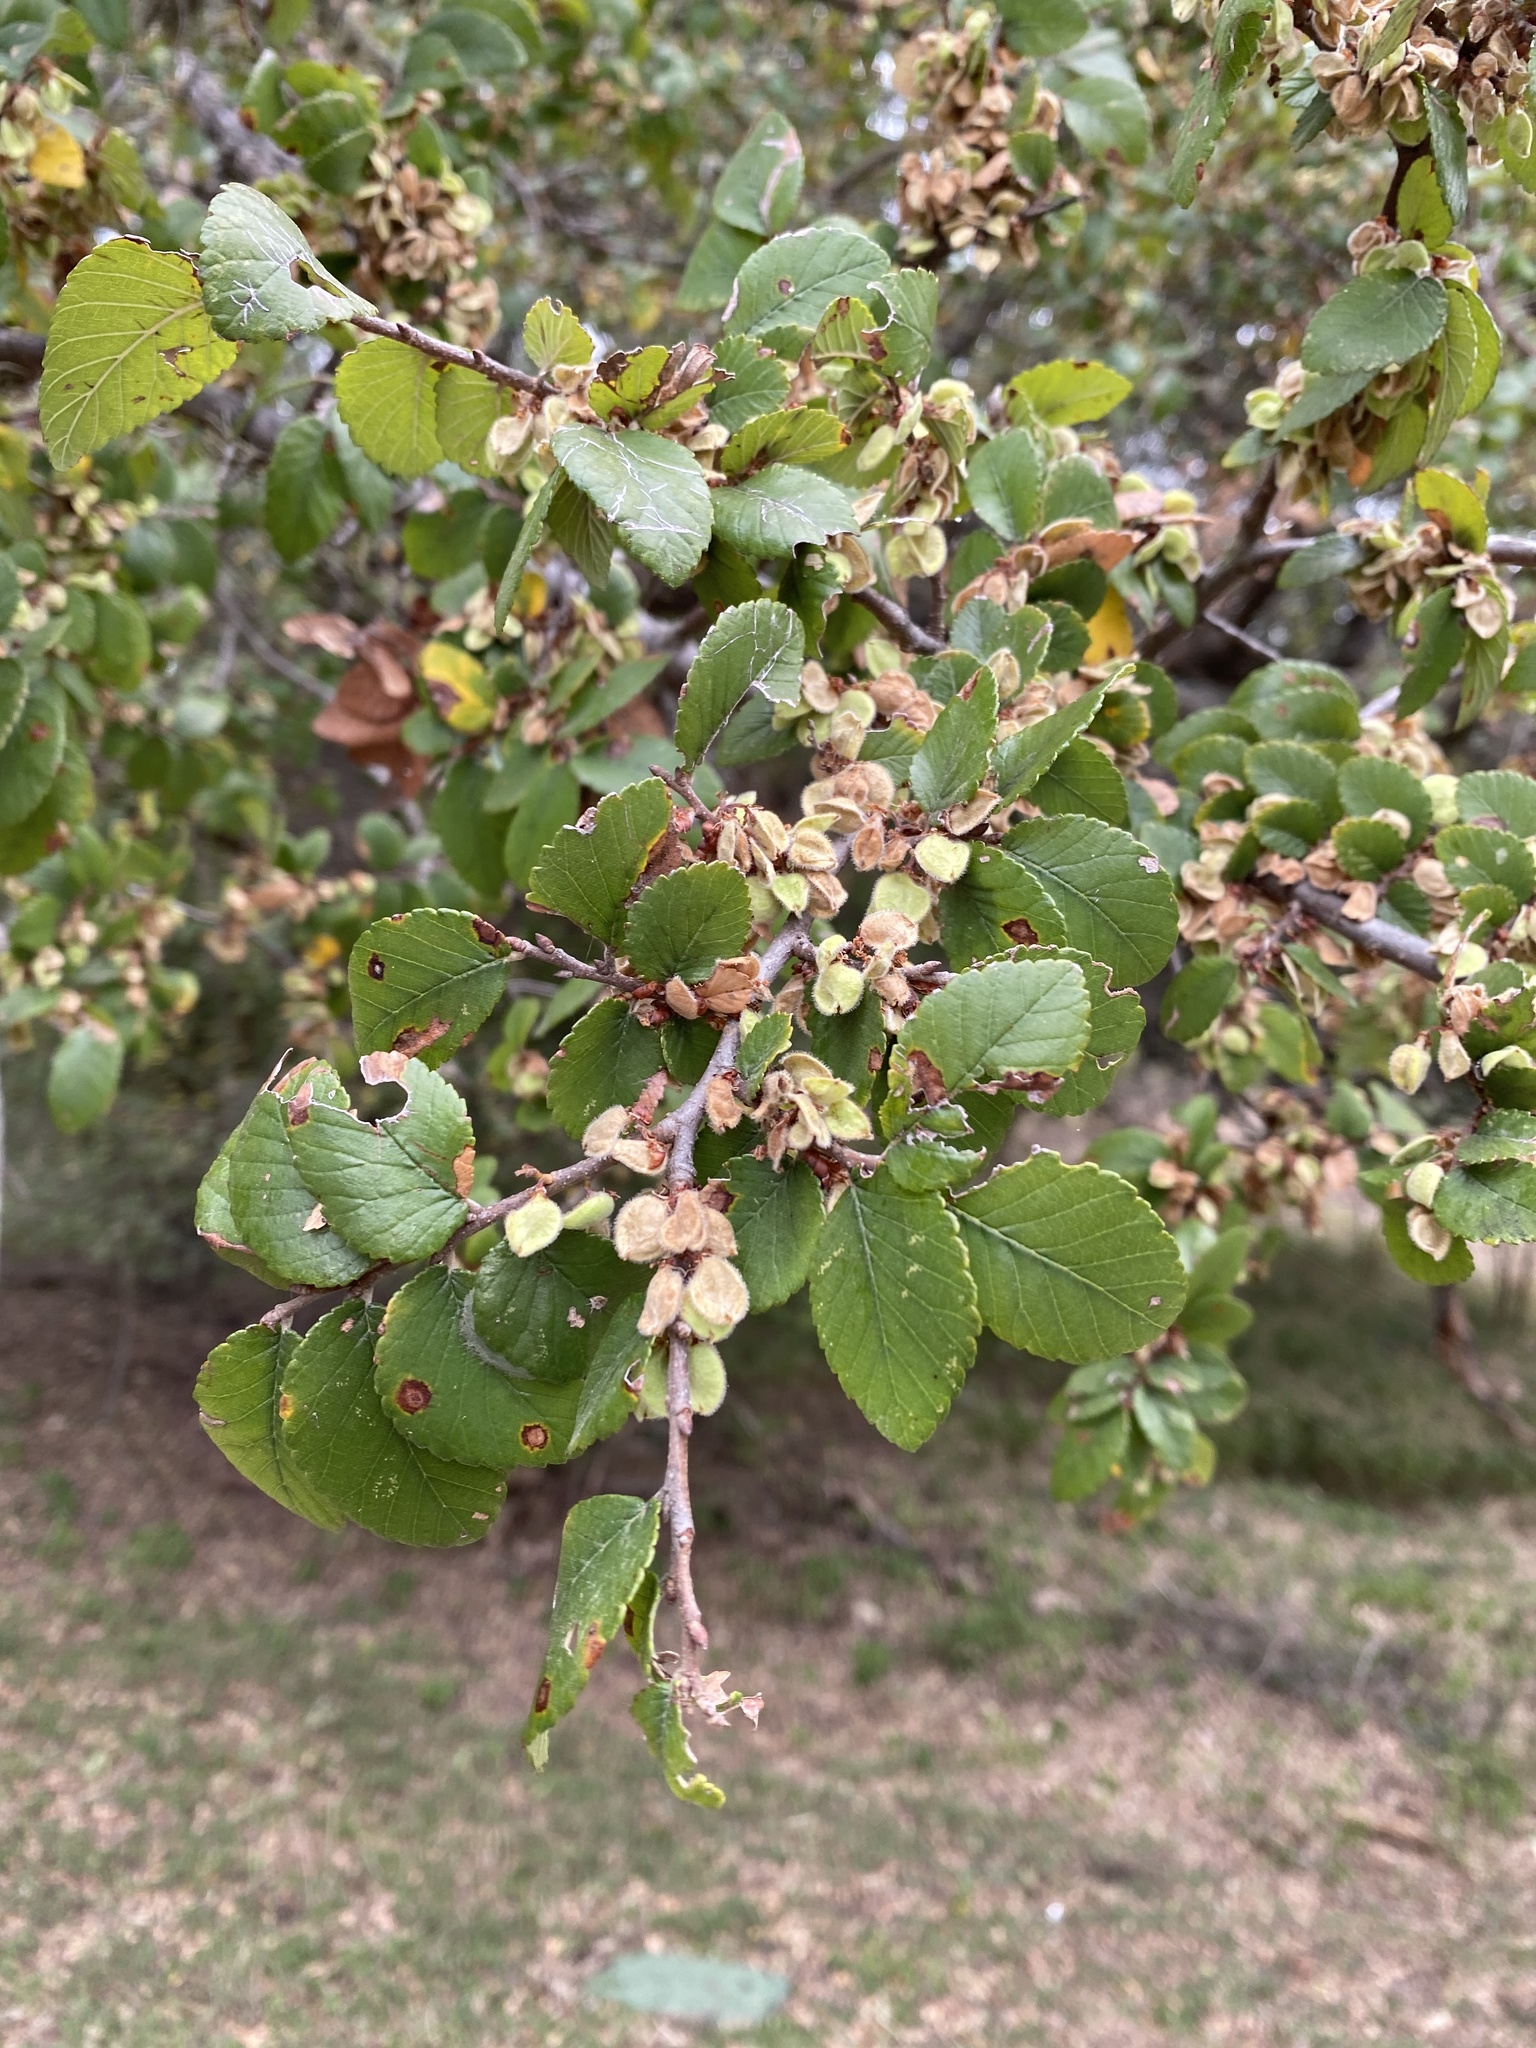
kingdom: Plantae
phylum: Tracheophyta
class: Magnoliopsida
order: Rosales
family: Ulmaceae
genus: Ulmus
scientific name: Ulmus crassifolia
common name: Basket elm
